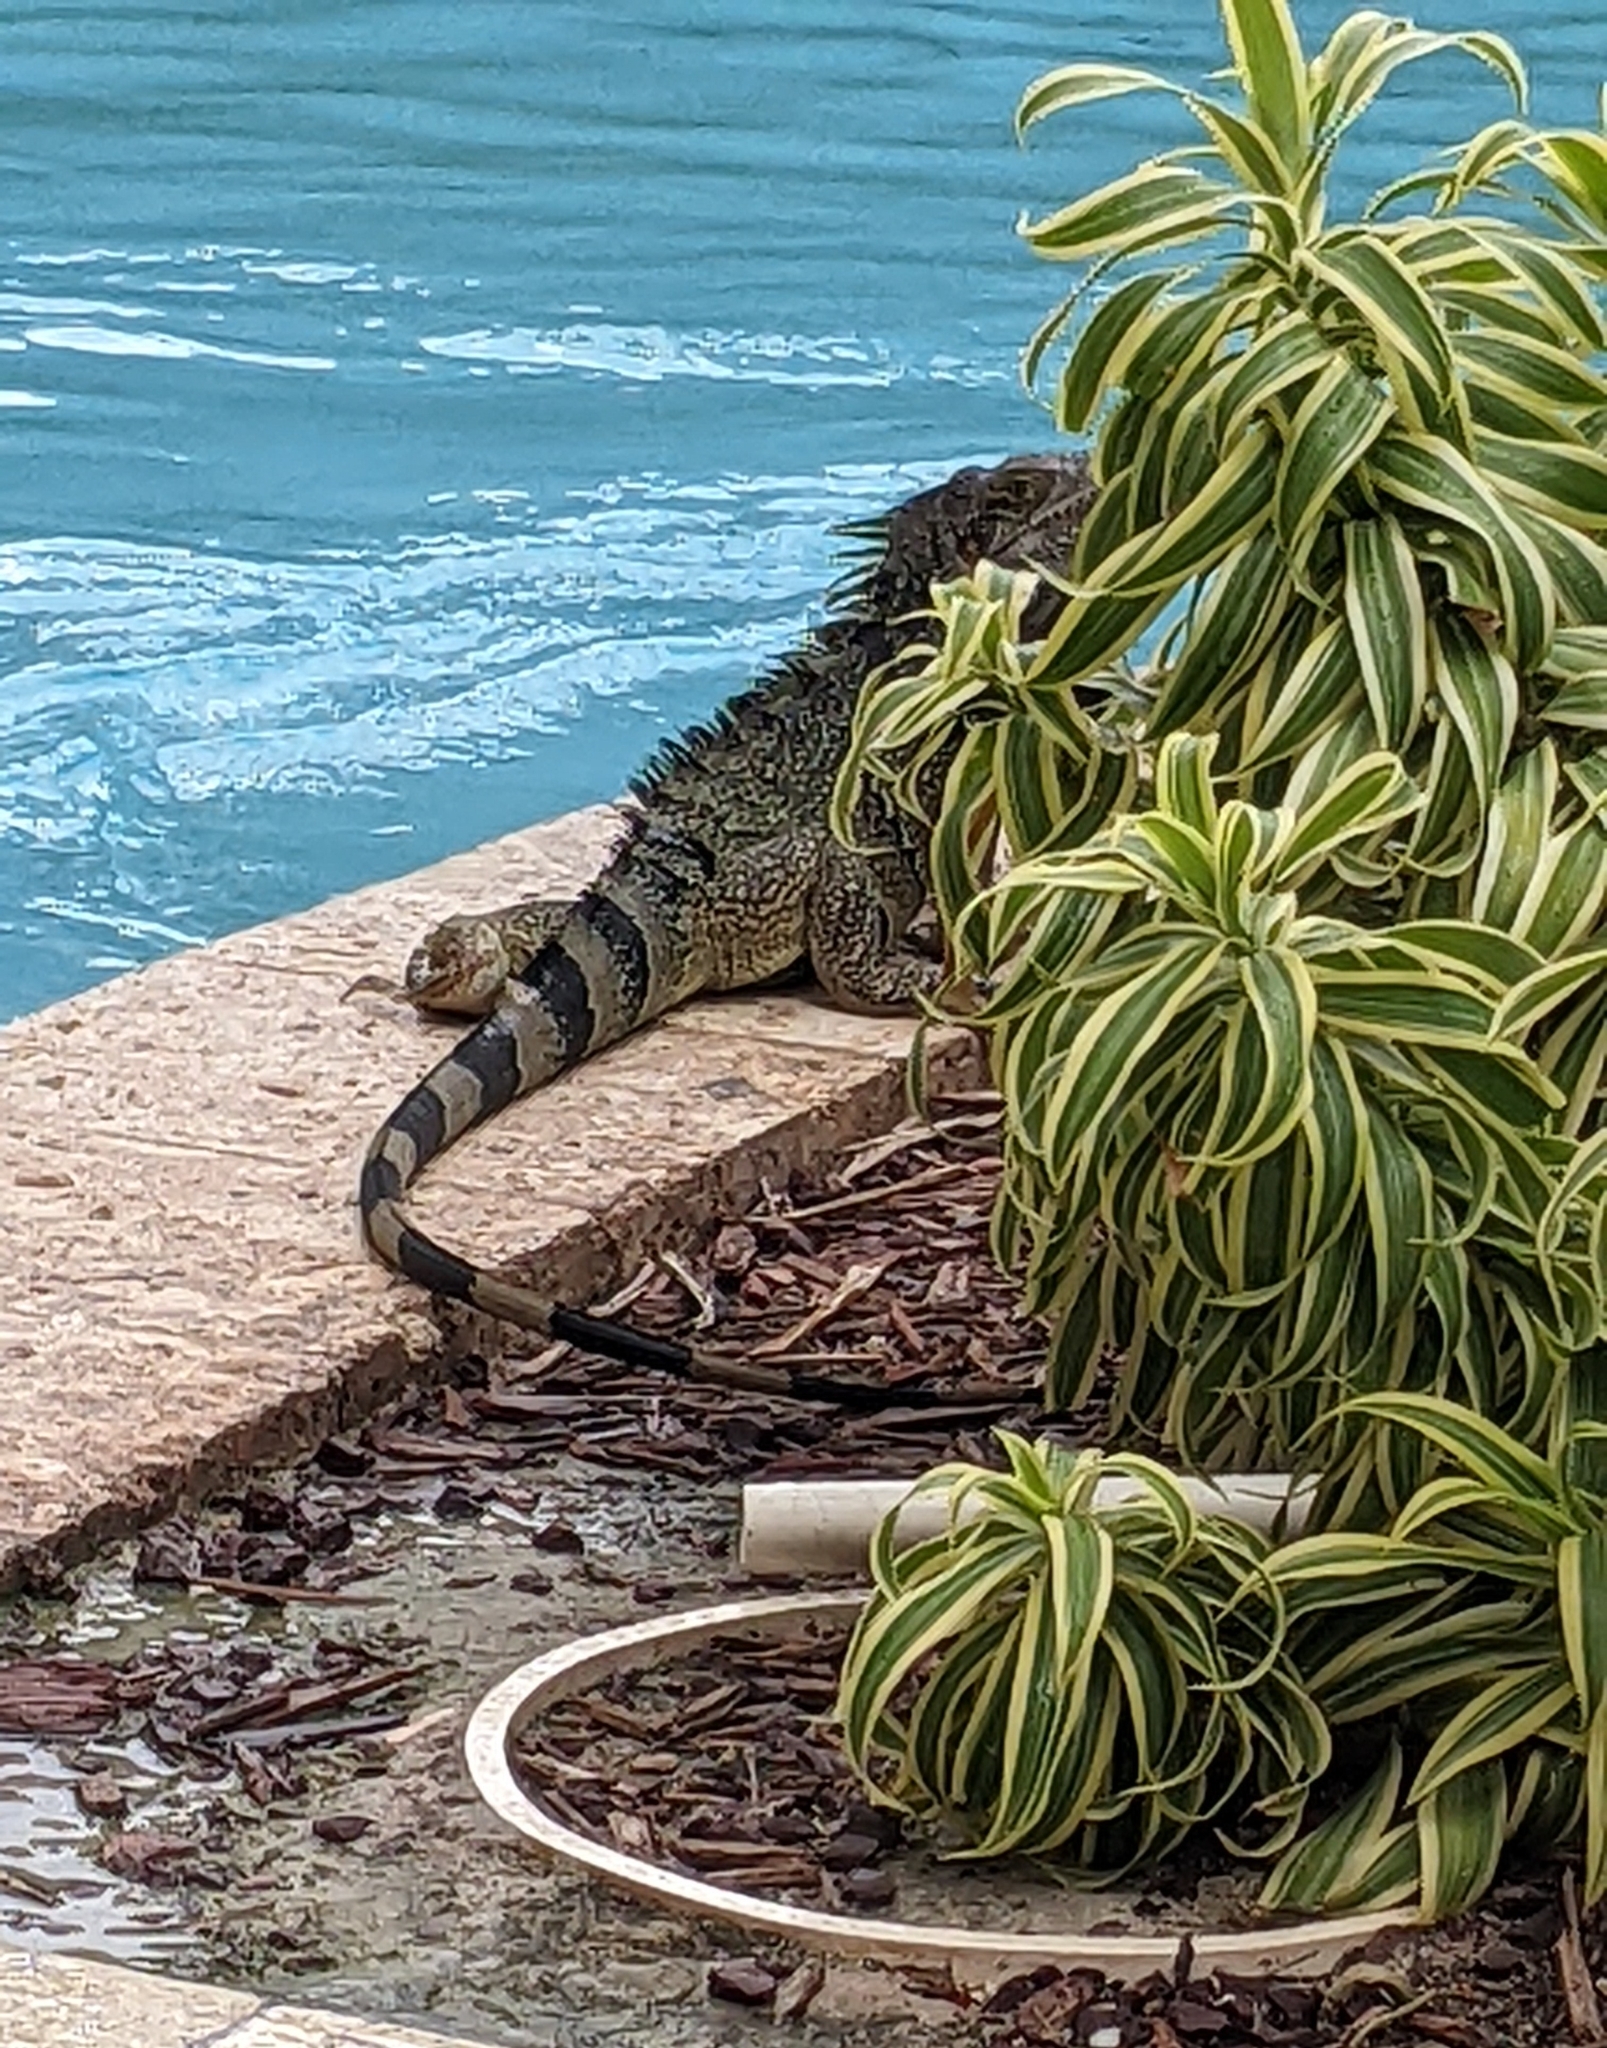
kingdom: Animalia
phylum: Chordata
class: Squamata
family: Iguanidae
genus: Iguana
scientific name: Iguana iguana
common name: Green iguana
